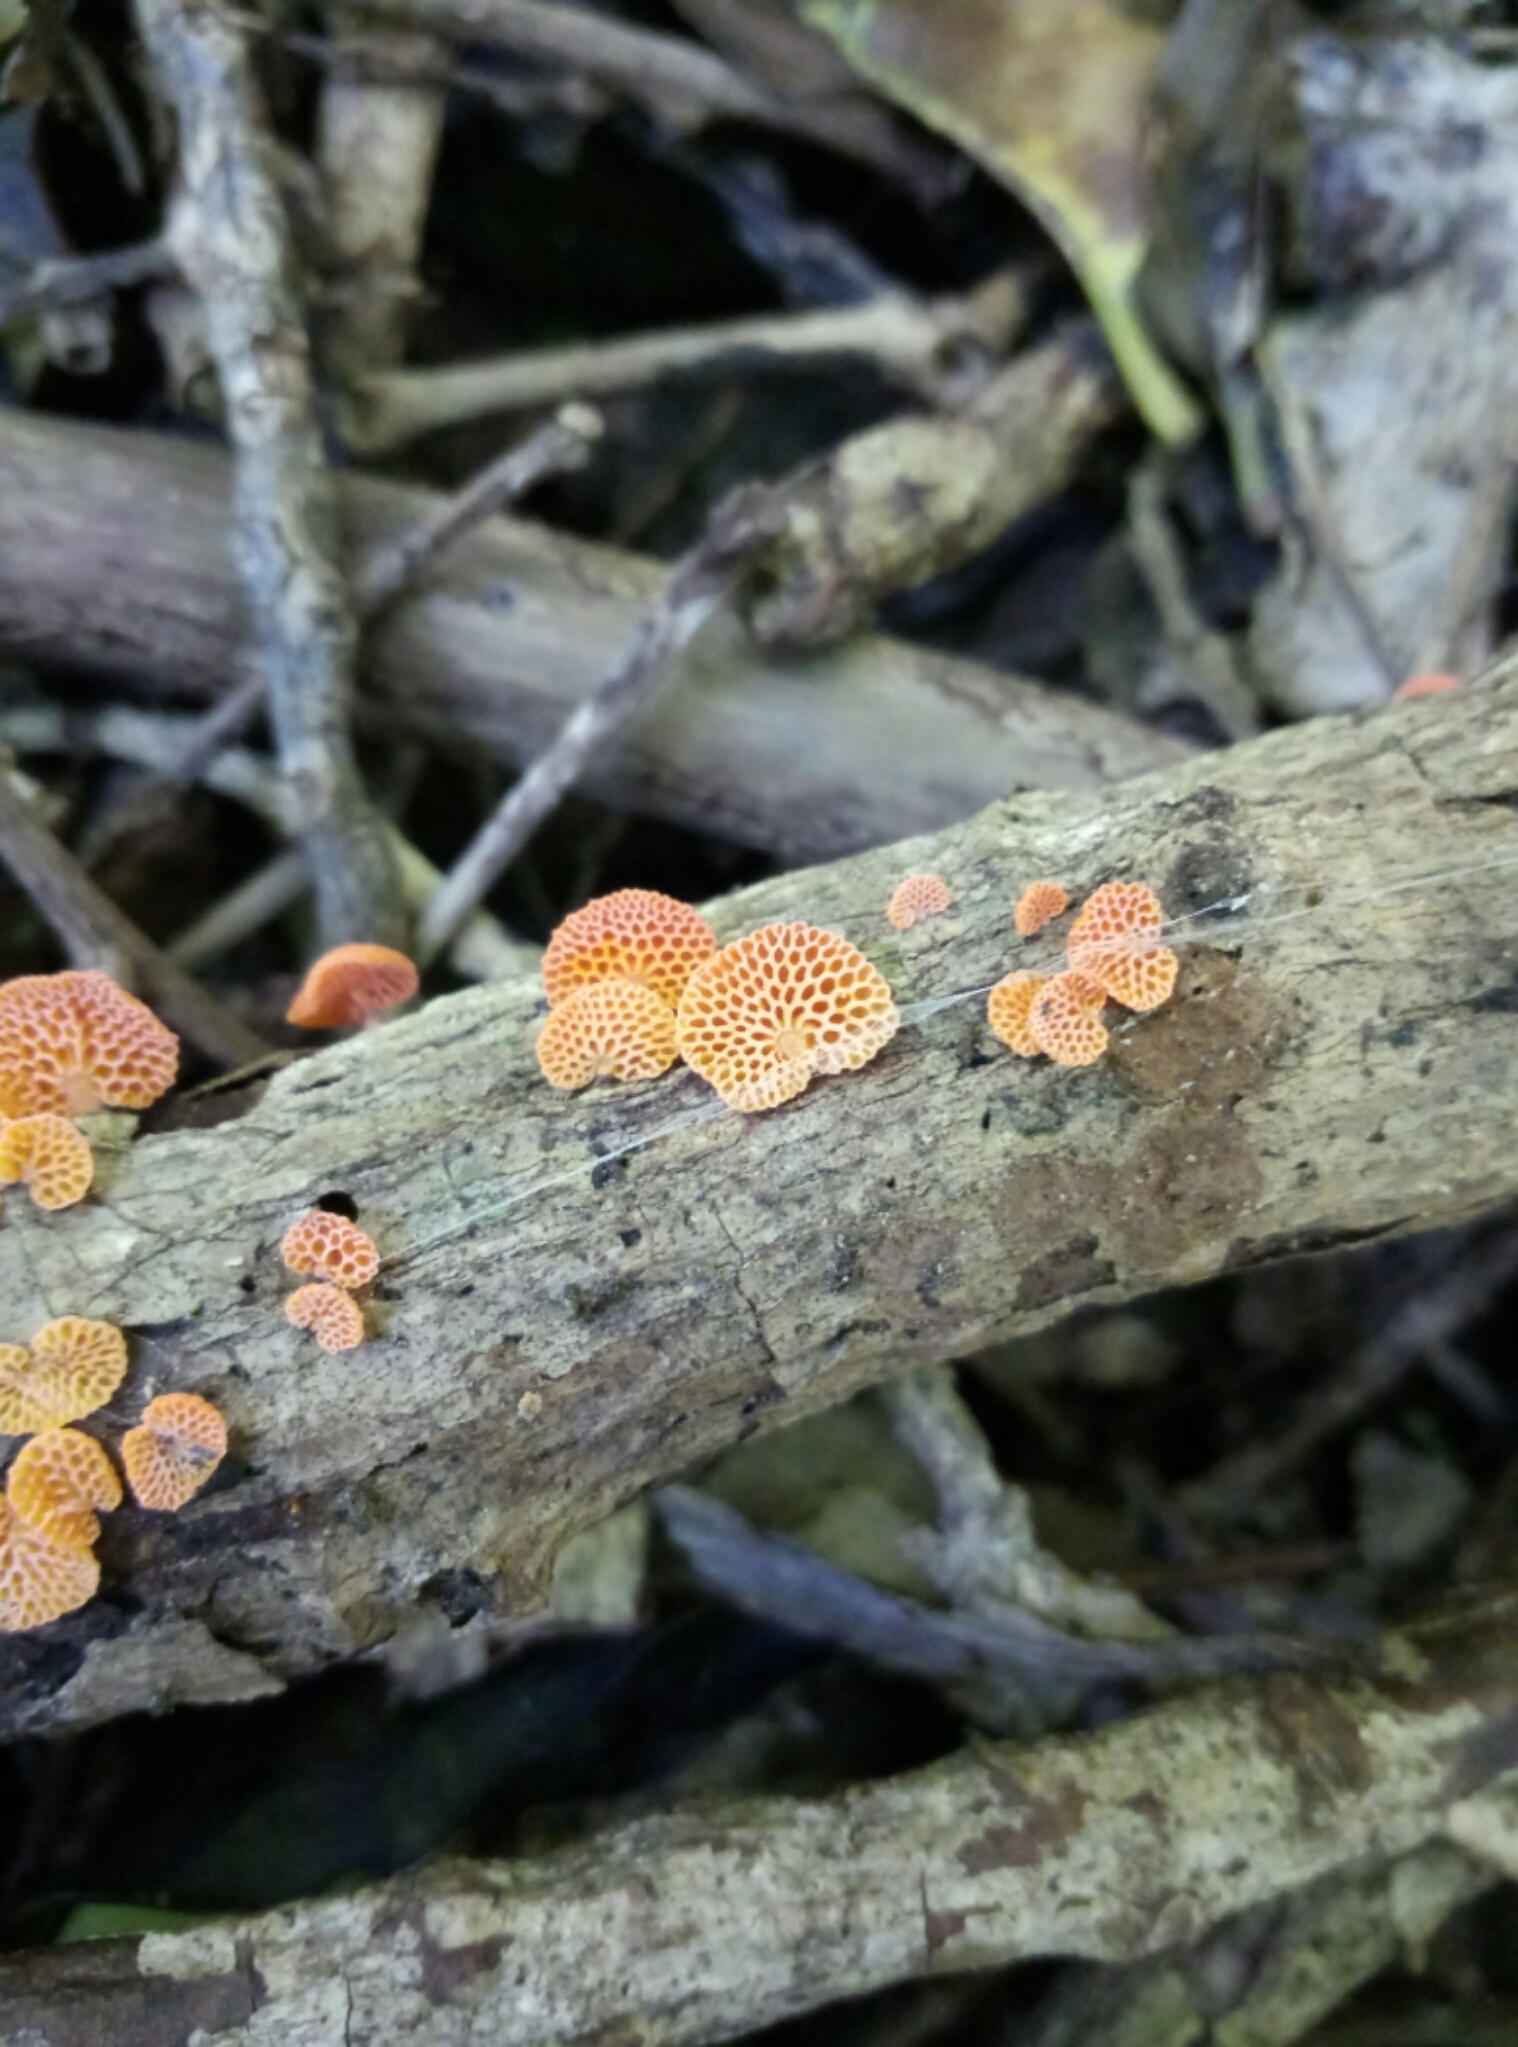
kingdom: Fungi
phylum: Basidiomycota
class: Agaricomycetes
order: Agaricales
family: Mycenaceae
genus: Favolaschia
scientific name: Favolaschia claudopus
